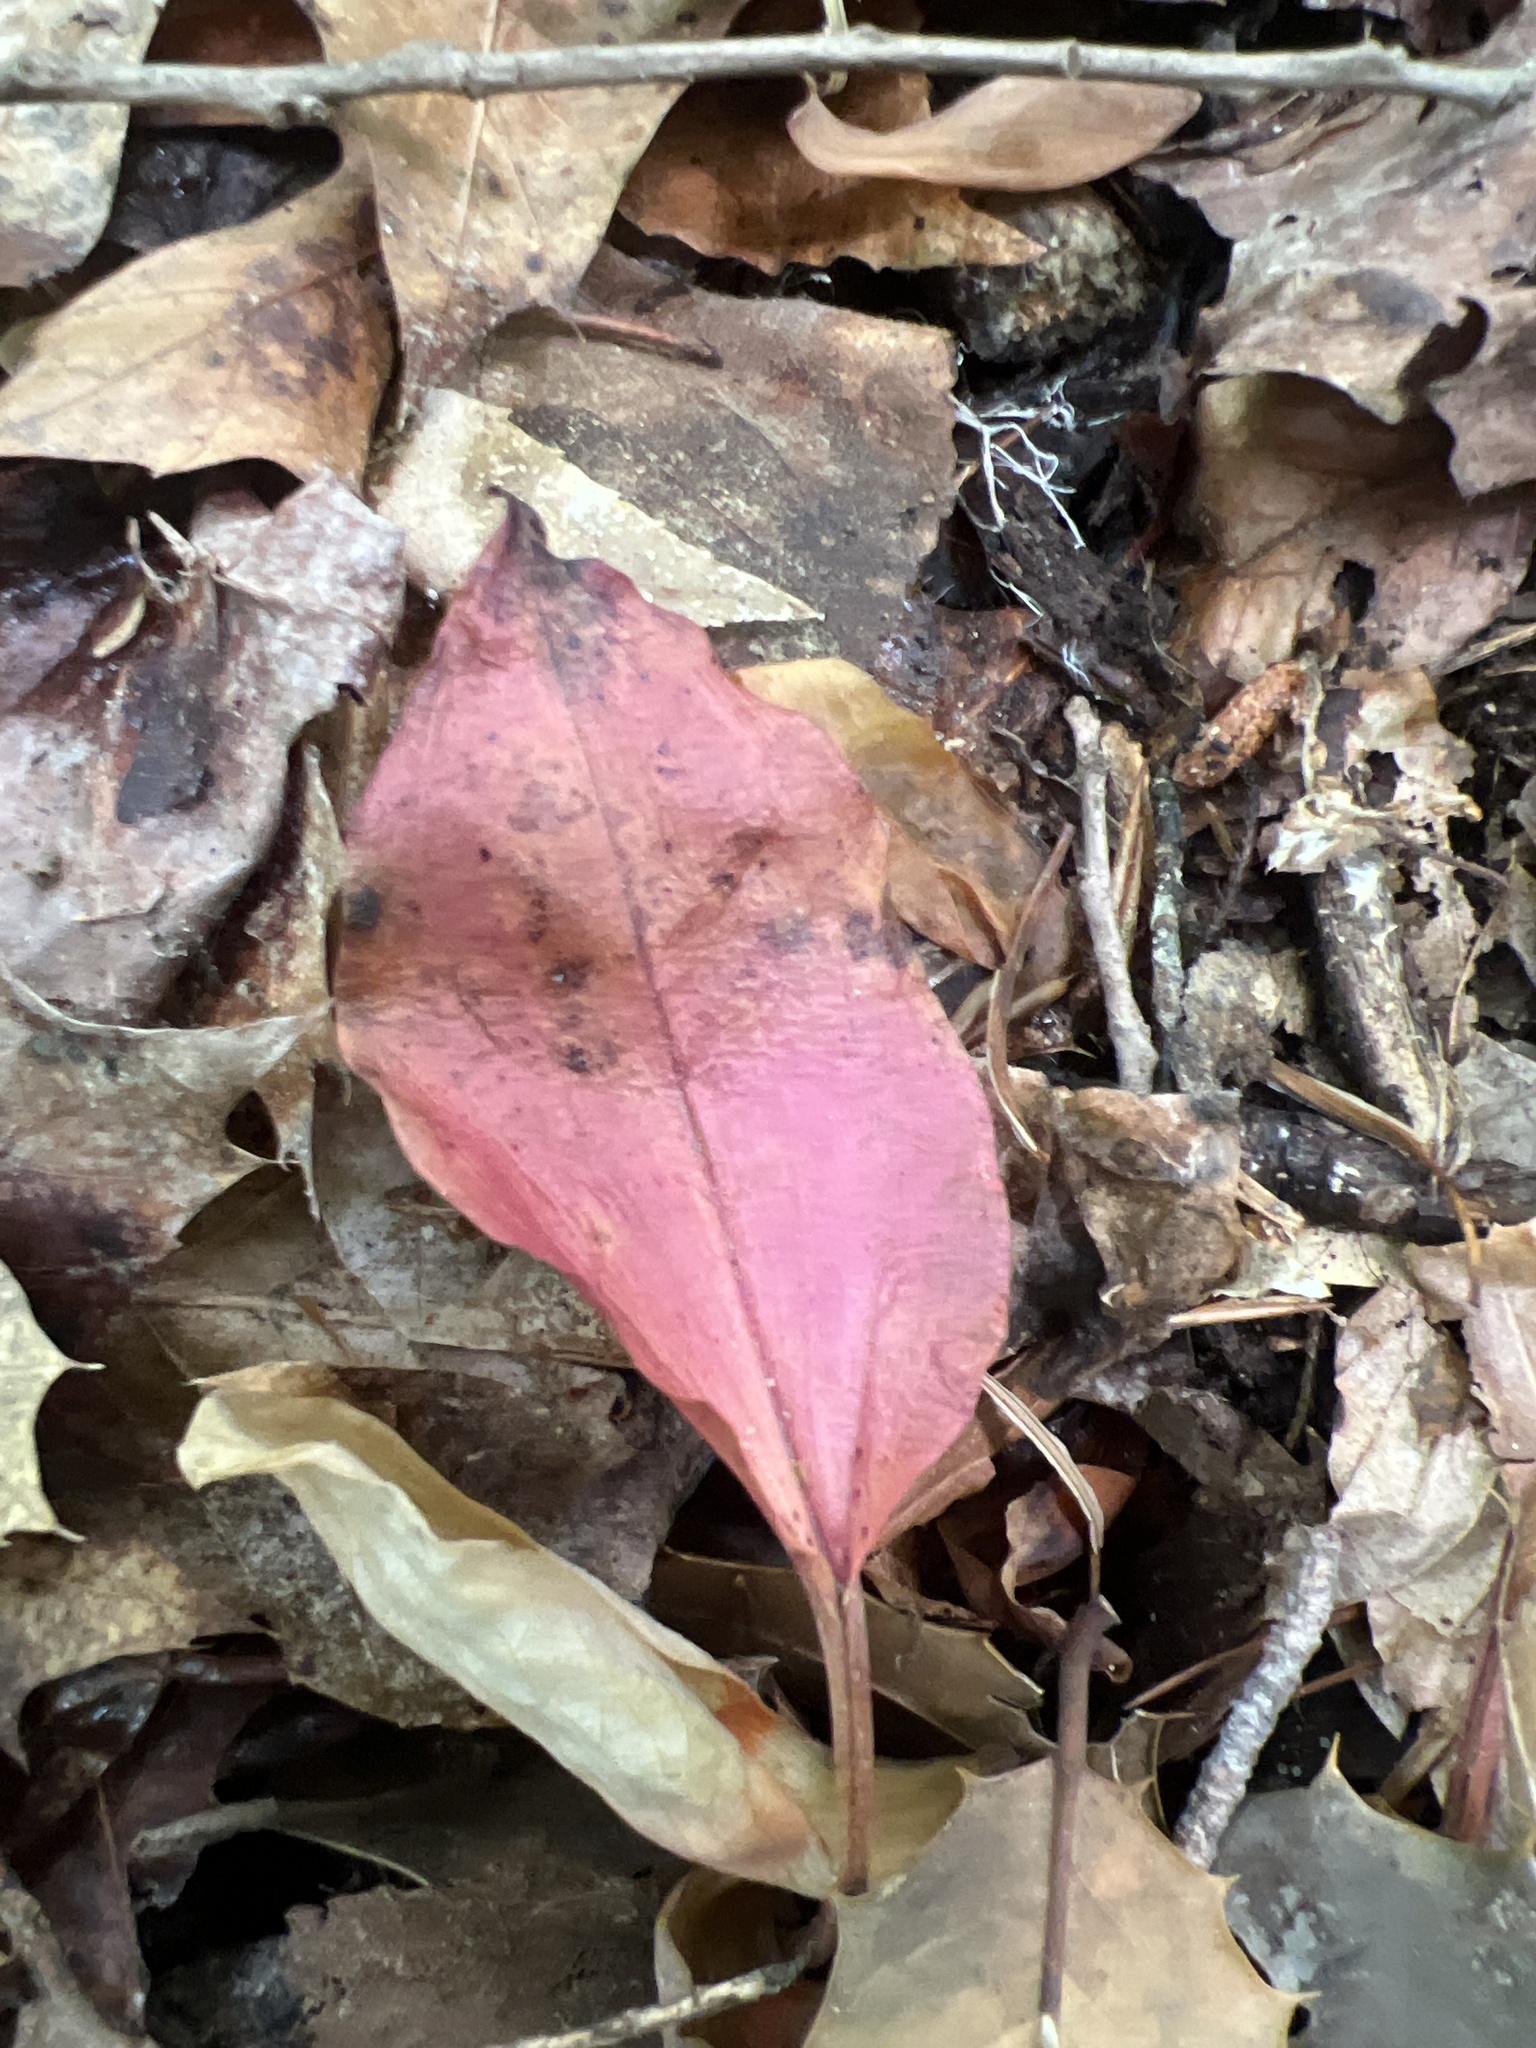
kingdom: Plantae
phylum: Tracheophyta
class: Liliopsida
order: Asparagales
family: Orchidaceae
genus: Tipularia
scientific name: Tipularia discolor
